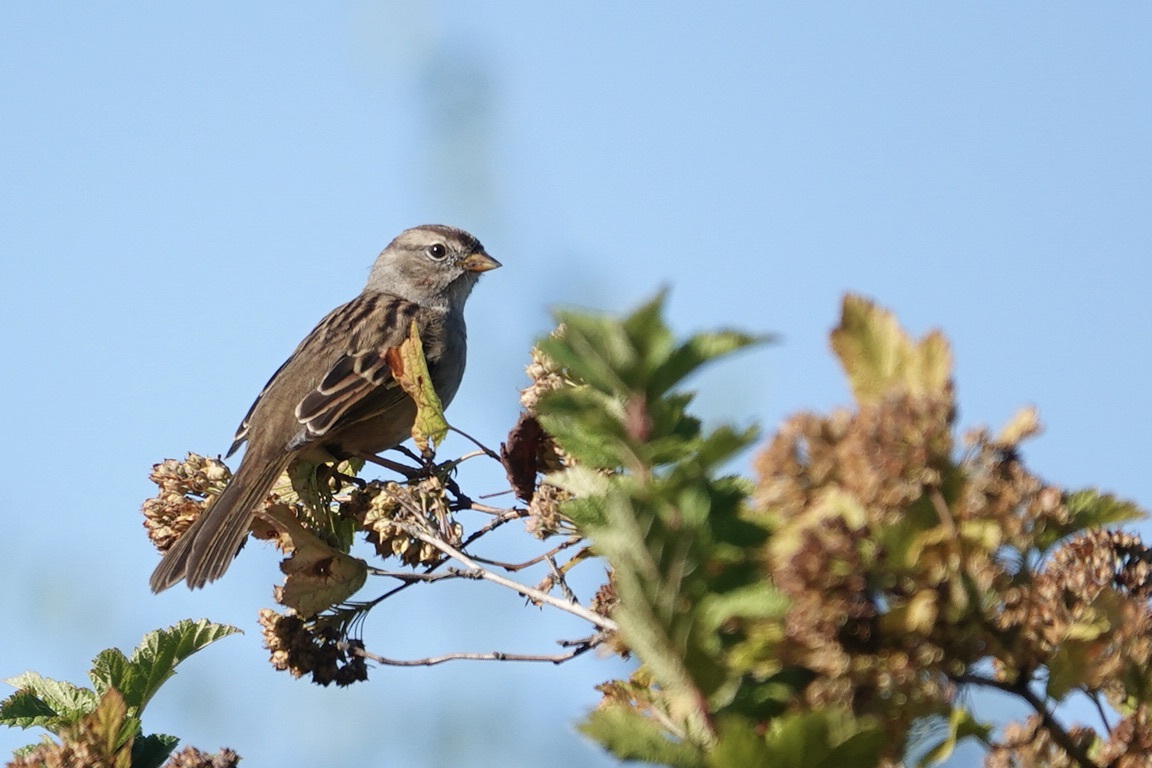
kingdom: Animalia
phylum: Chordata
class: Aves
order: Passeriformes
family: Passerellidae
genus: Zonotrichia
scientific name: Zonotrichia leucophrys
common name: White-crowned sparrow
